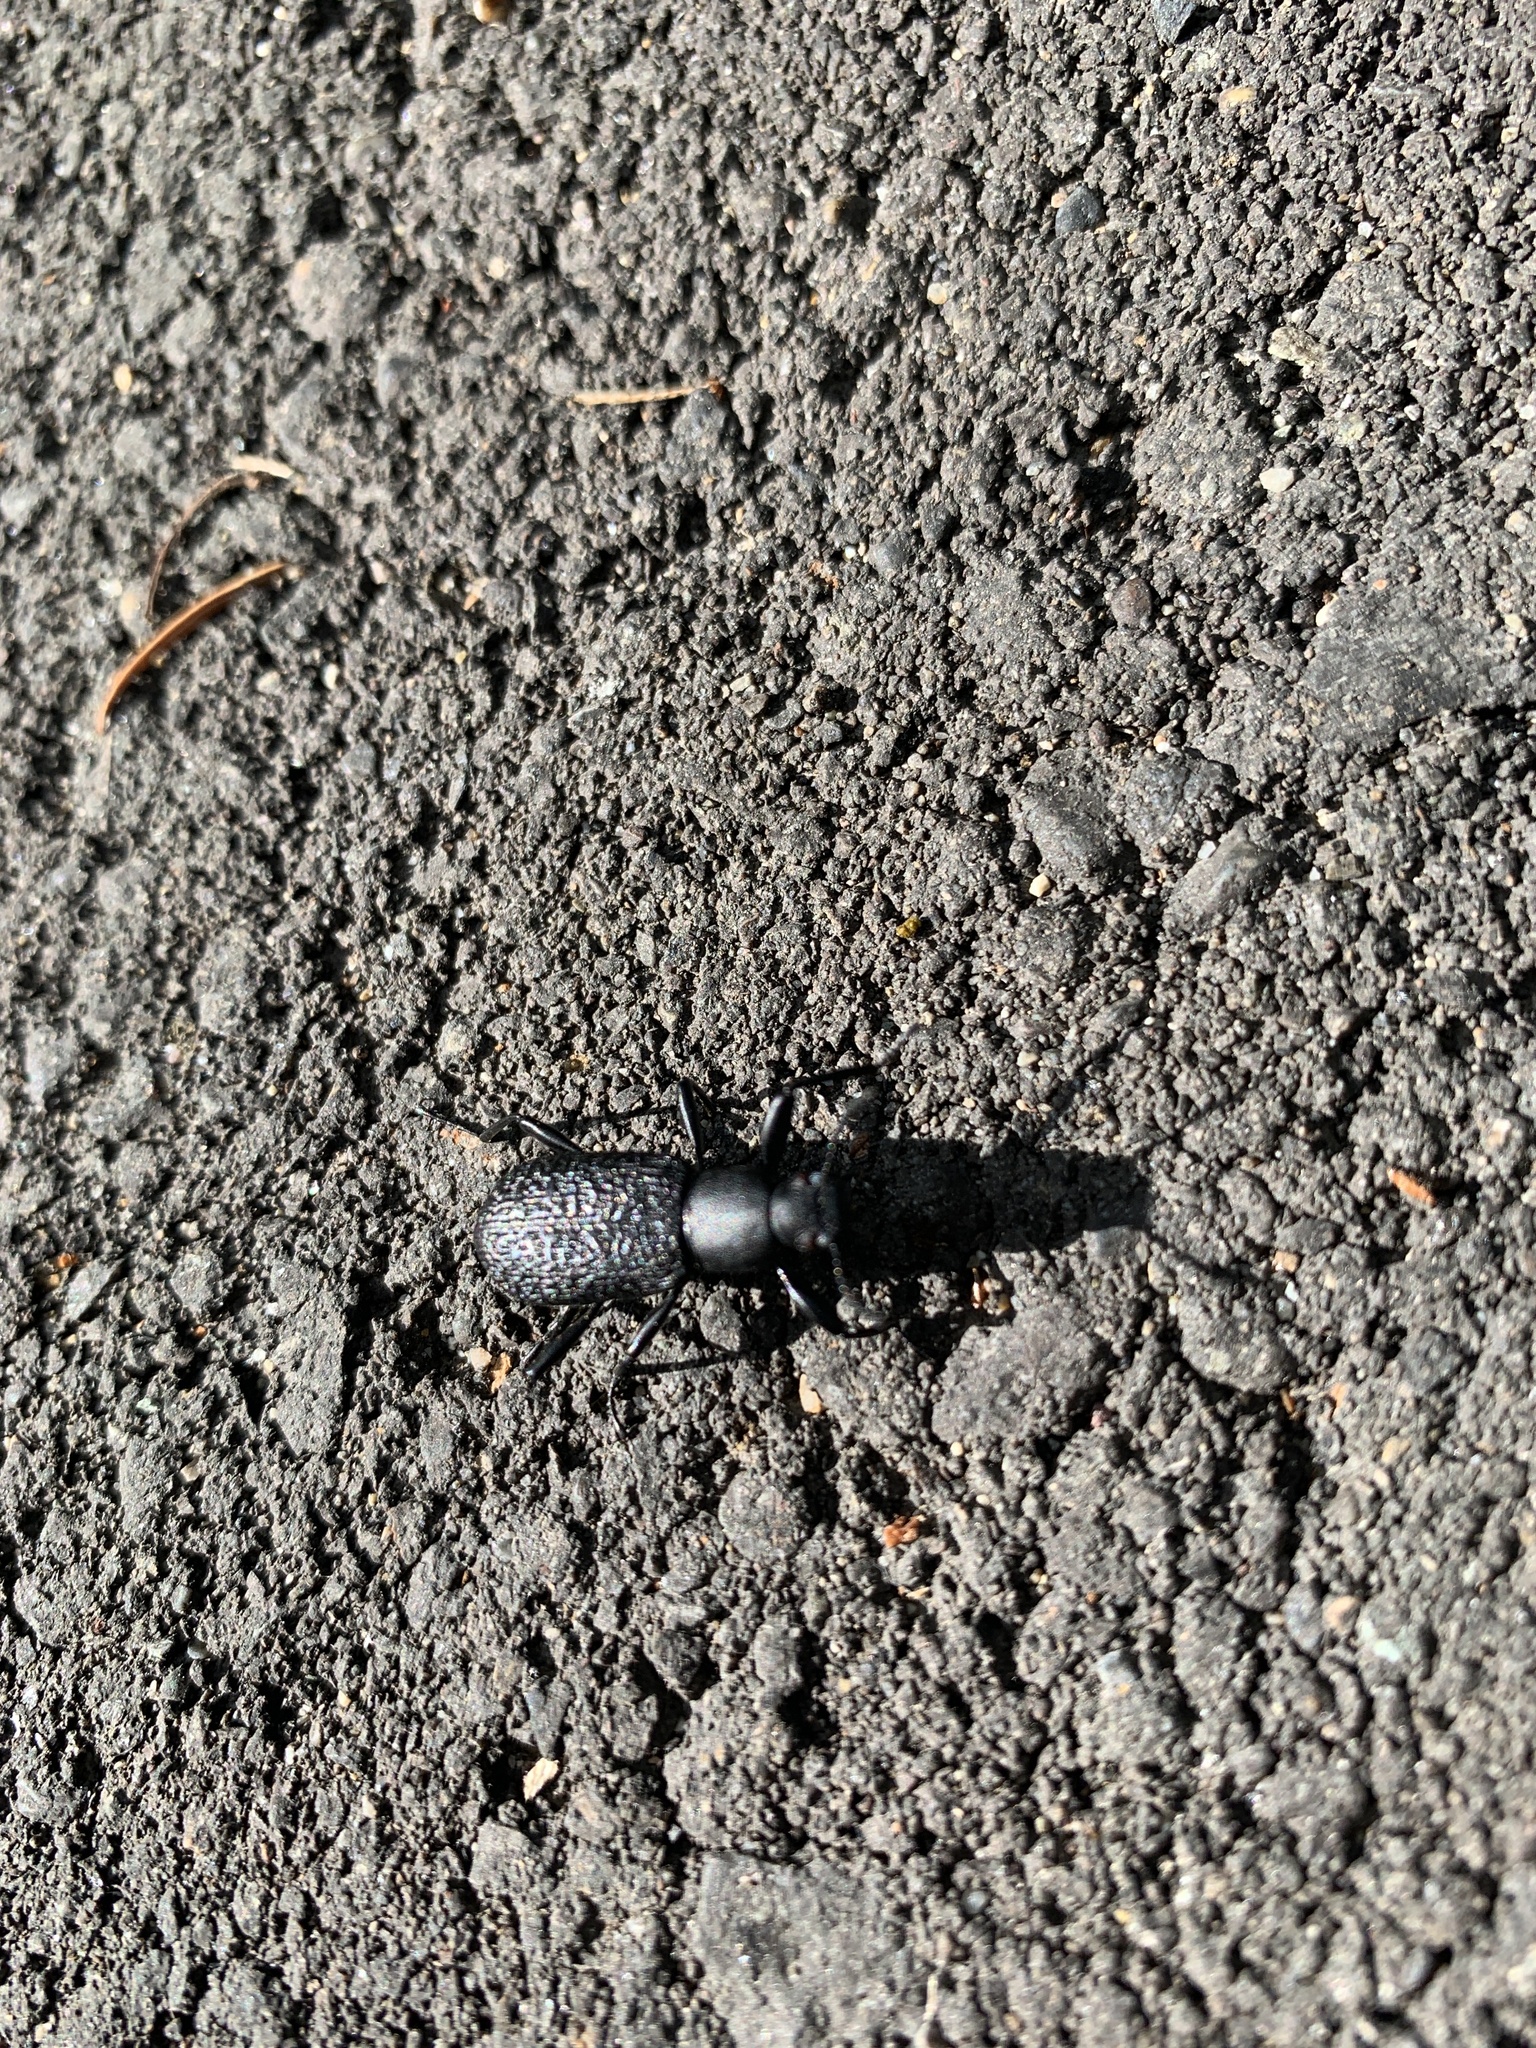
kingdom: Animalia
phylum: Arthropoda
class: Insecta
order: Coleoptera
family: Tenebrionidae
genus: Upis
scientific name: Upis ceramboides
